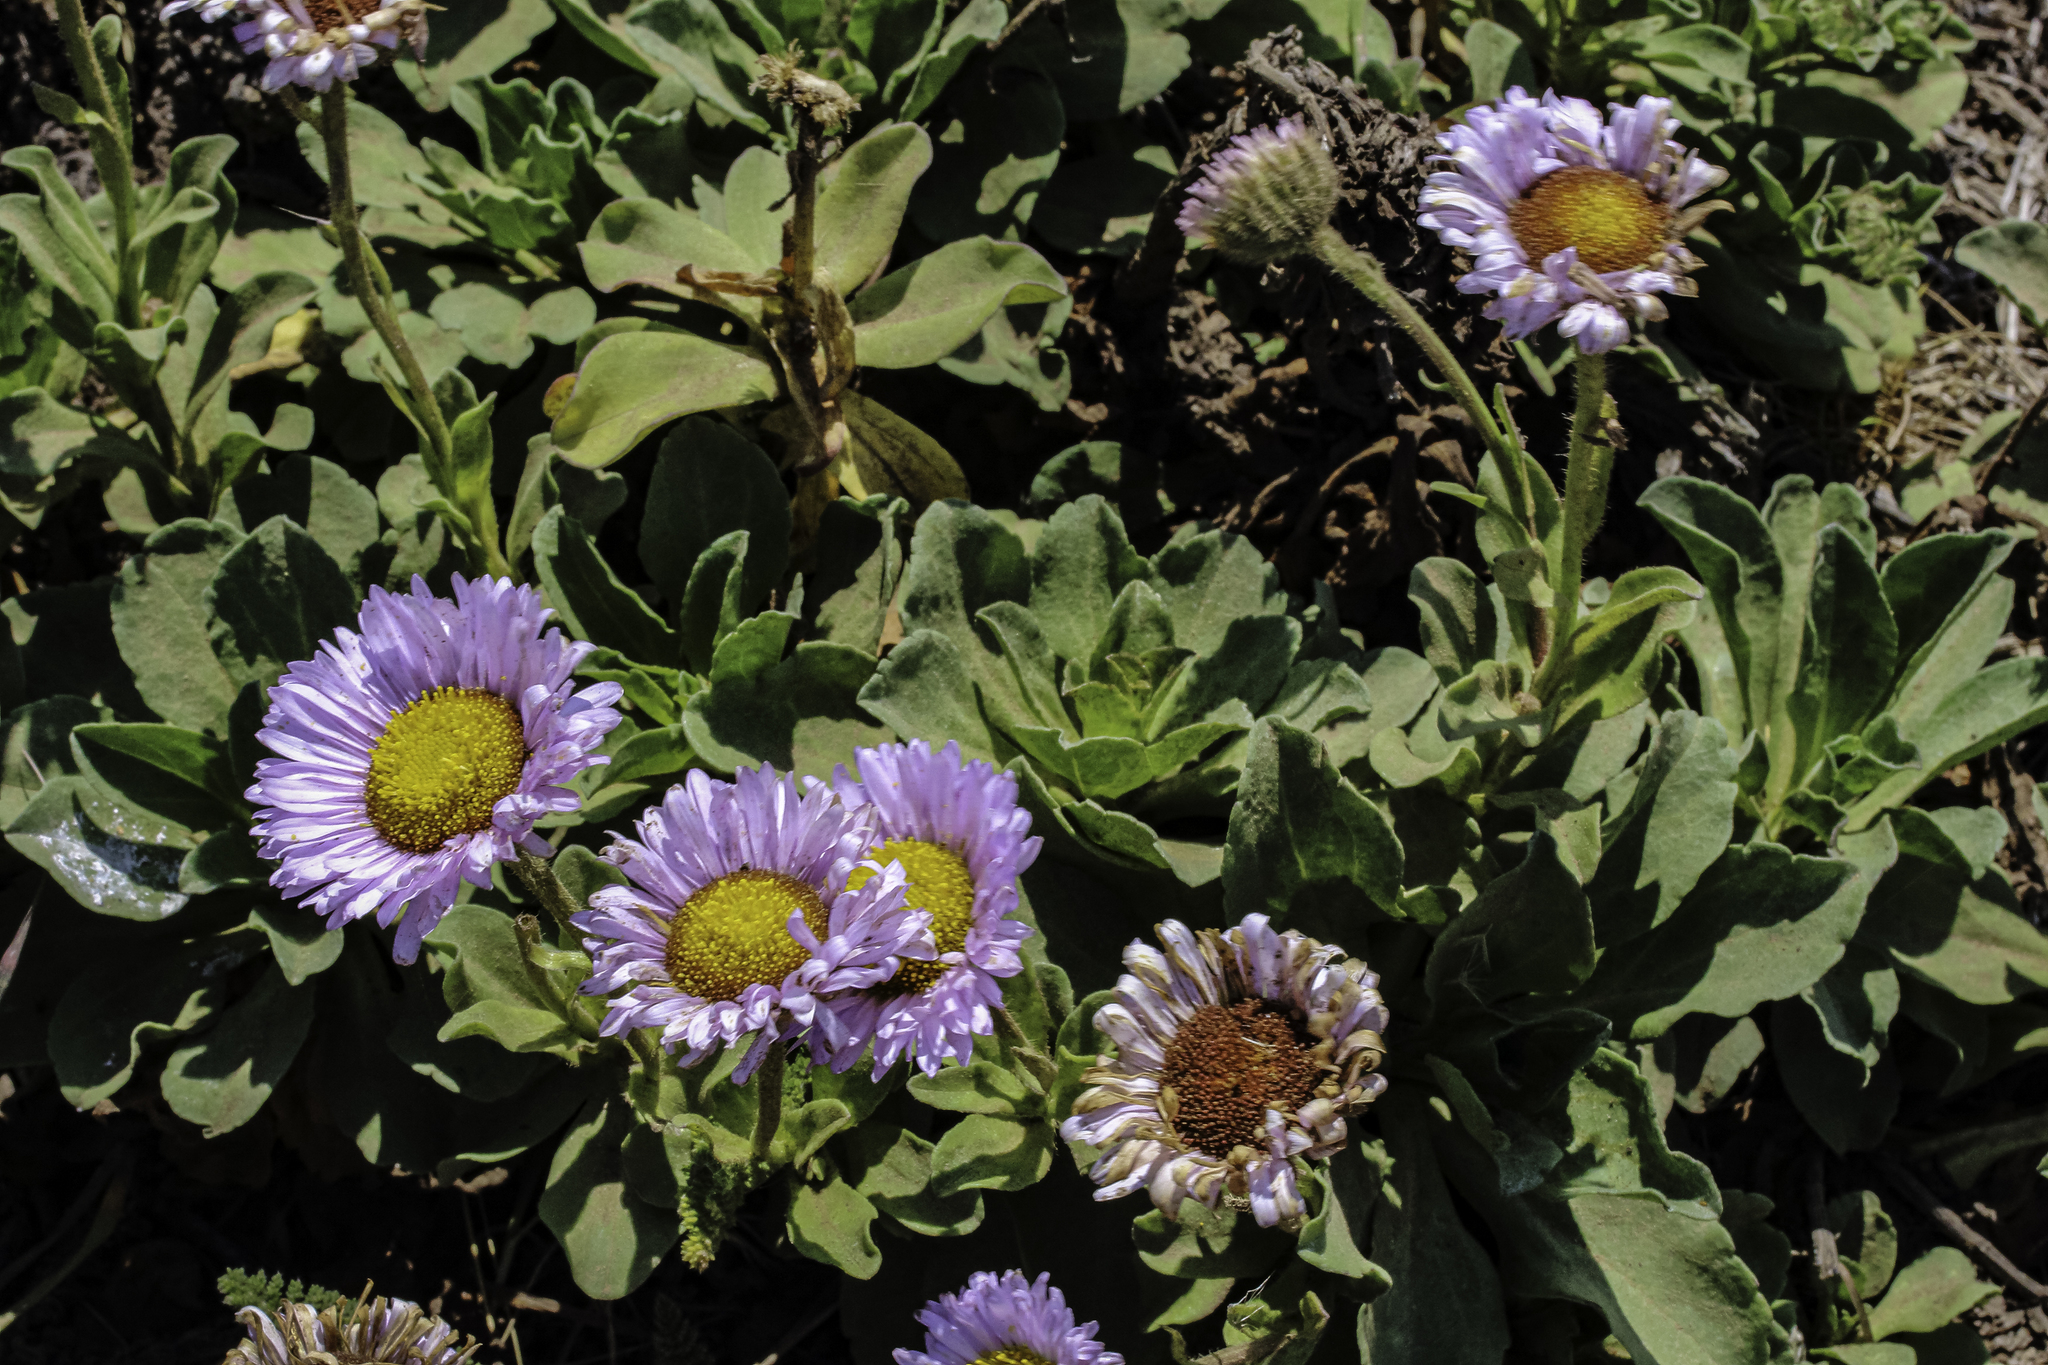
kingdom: Plantae
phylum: Tracheophyta
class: Magnoliopsida
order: Asterales
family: Asteraceae
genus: Erigeron
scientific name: Erigeron glaucus
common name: Seaside daisy
